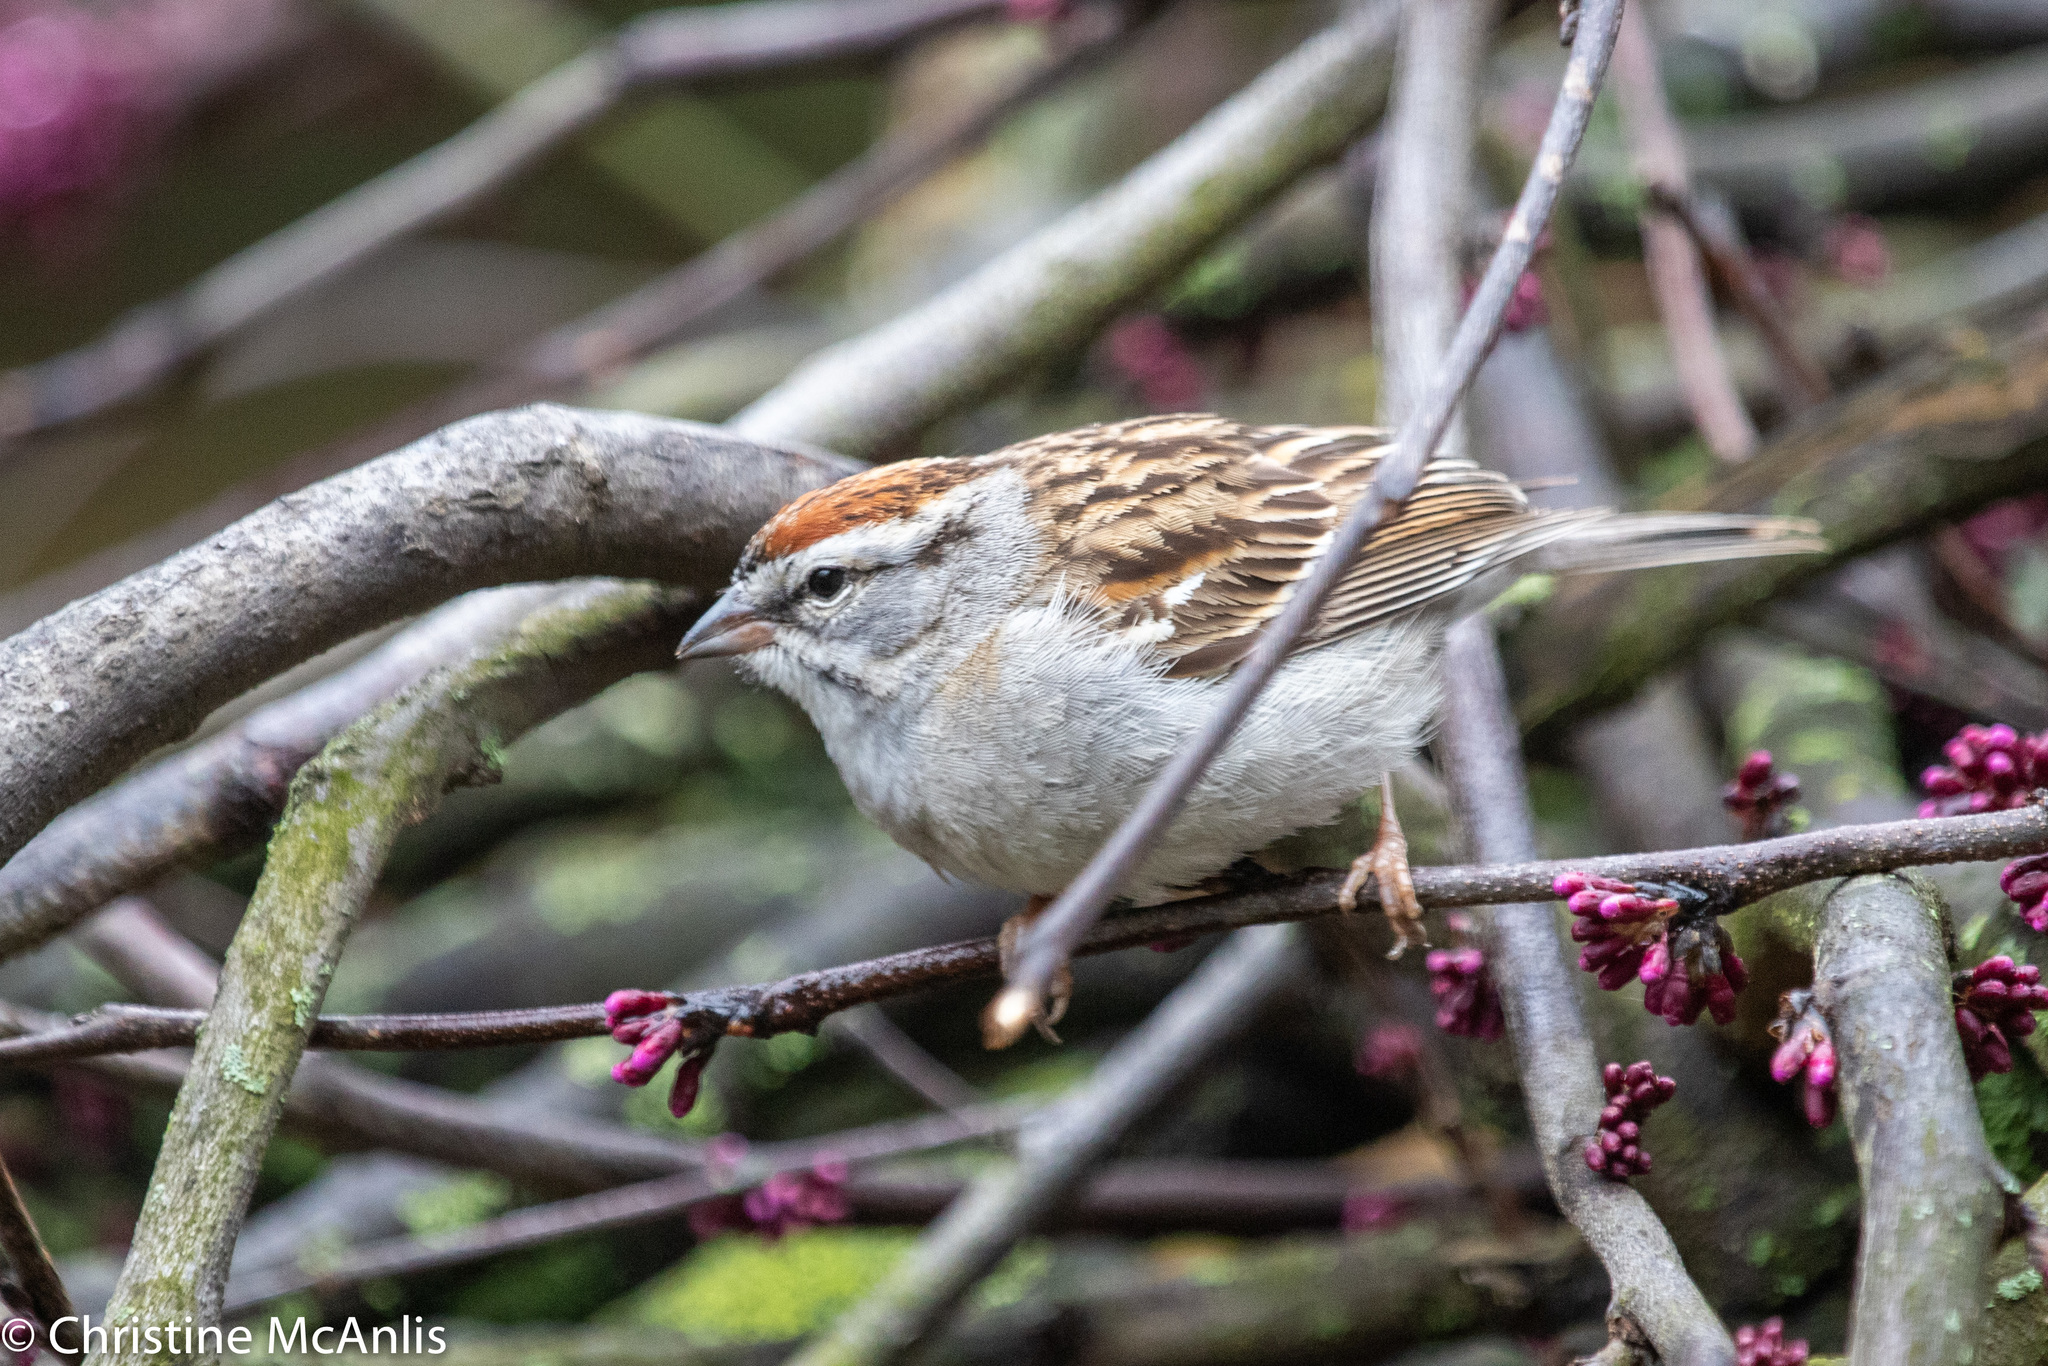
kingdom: Animalia
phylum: Chordata
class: Aves
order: Passeriformes
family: Passerellidae
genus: Spizella
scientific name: Spizella passerina
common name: Chipping sparrow
